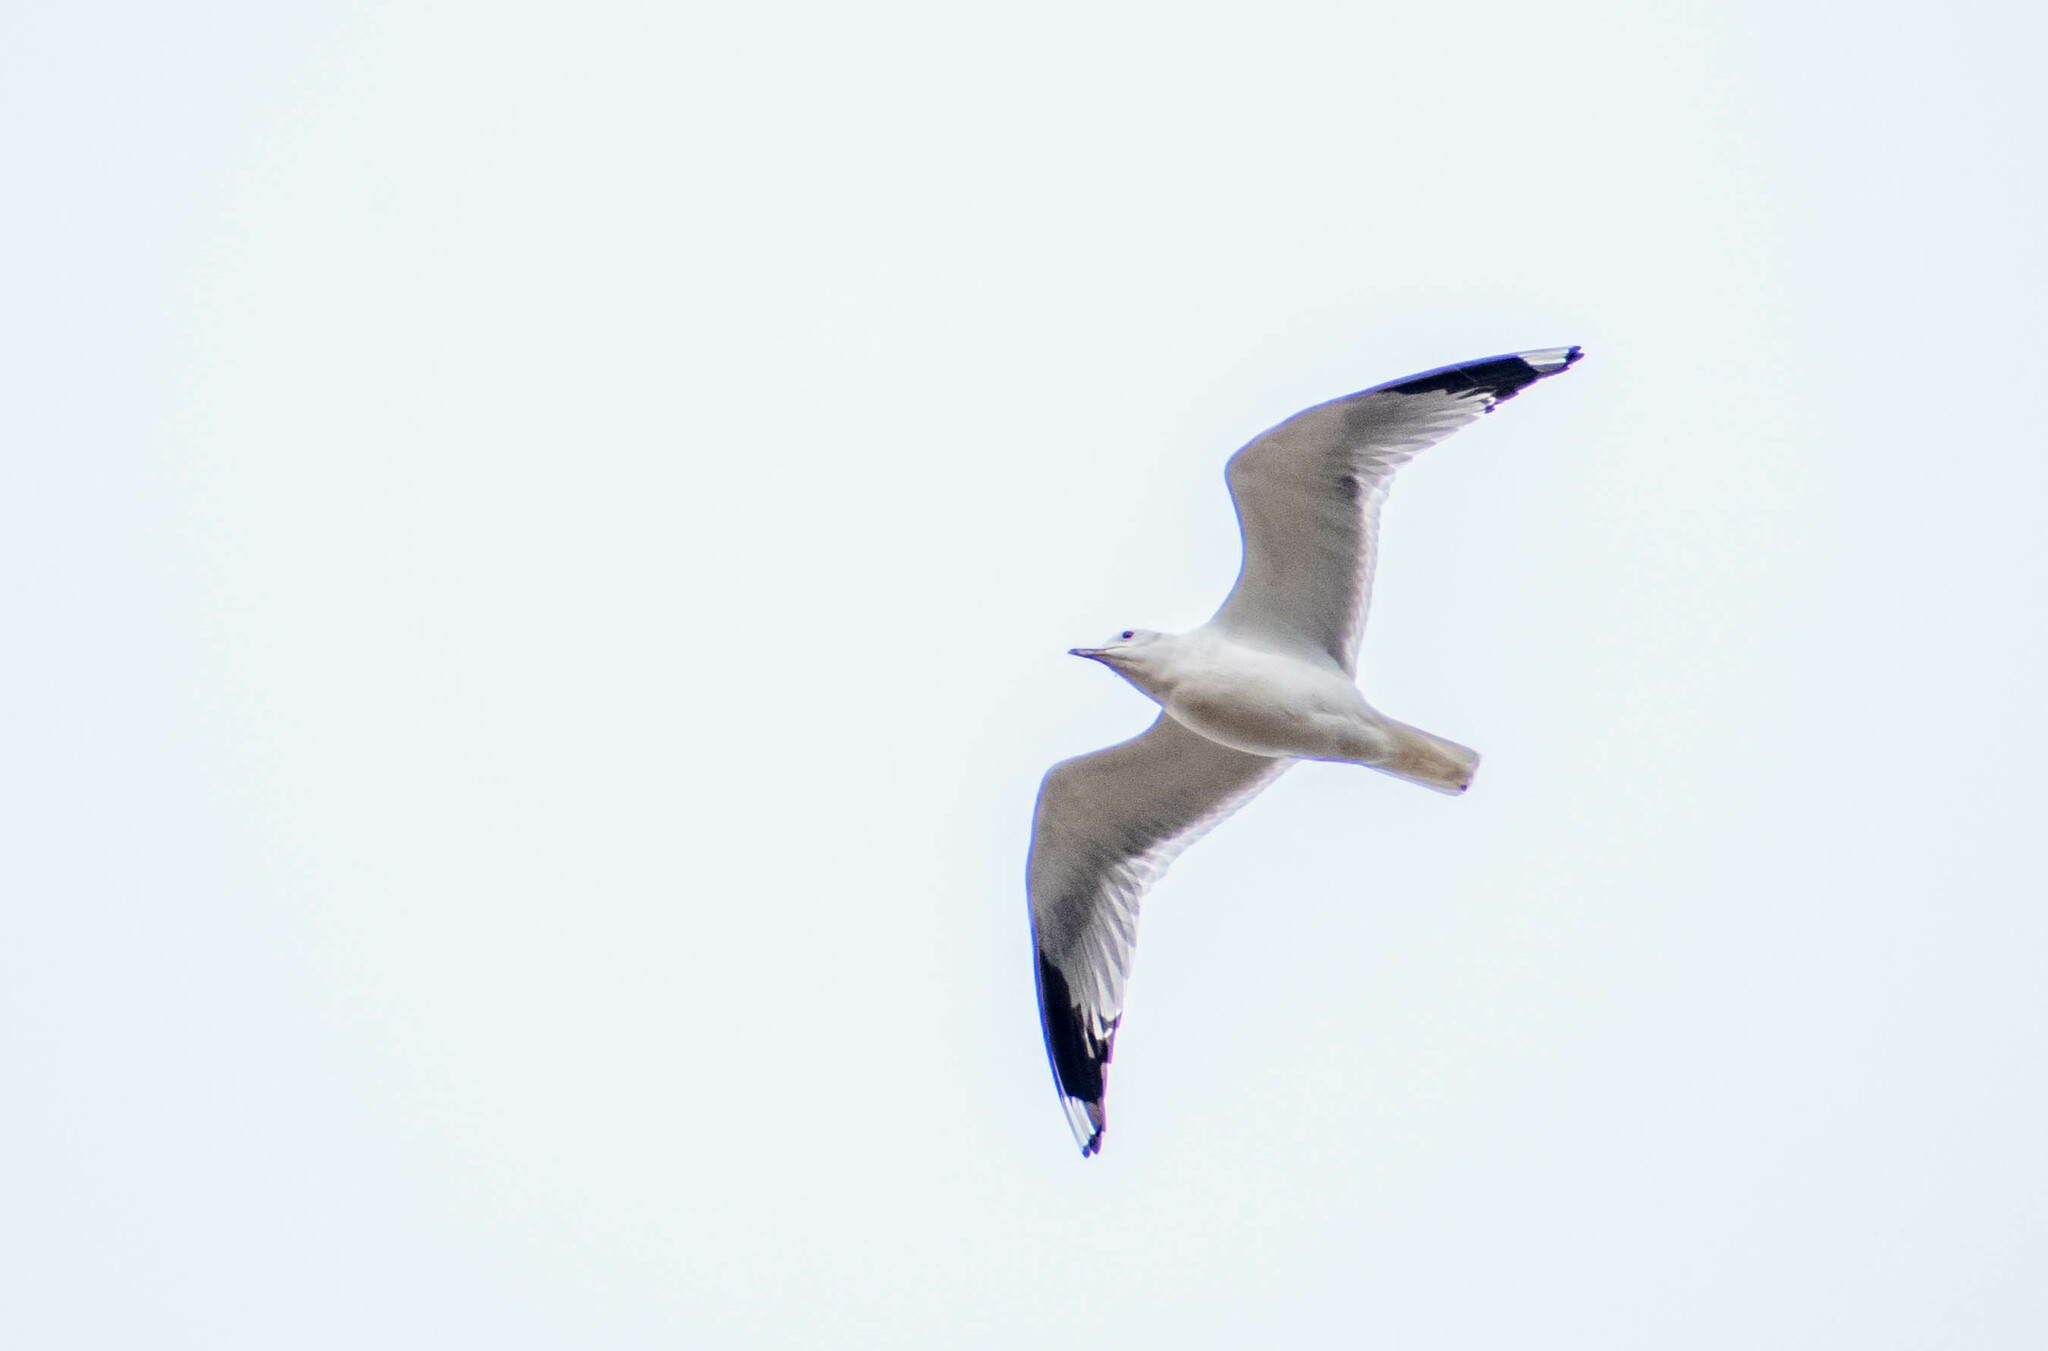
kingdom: Animalia
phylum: Chordata
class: Aves
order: Charadriiformes
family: Laridae
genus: Larus
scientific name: Larus canus
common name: Mew gull
